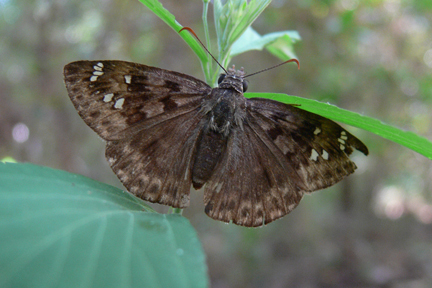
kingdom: Animalia
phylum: Arthropoda
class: Insecta
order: Lepidoptera
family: Hesperiidae
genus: Erynnis
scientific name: Erynnis horatius
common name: Horace's duskywing
